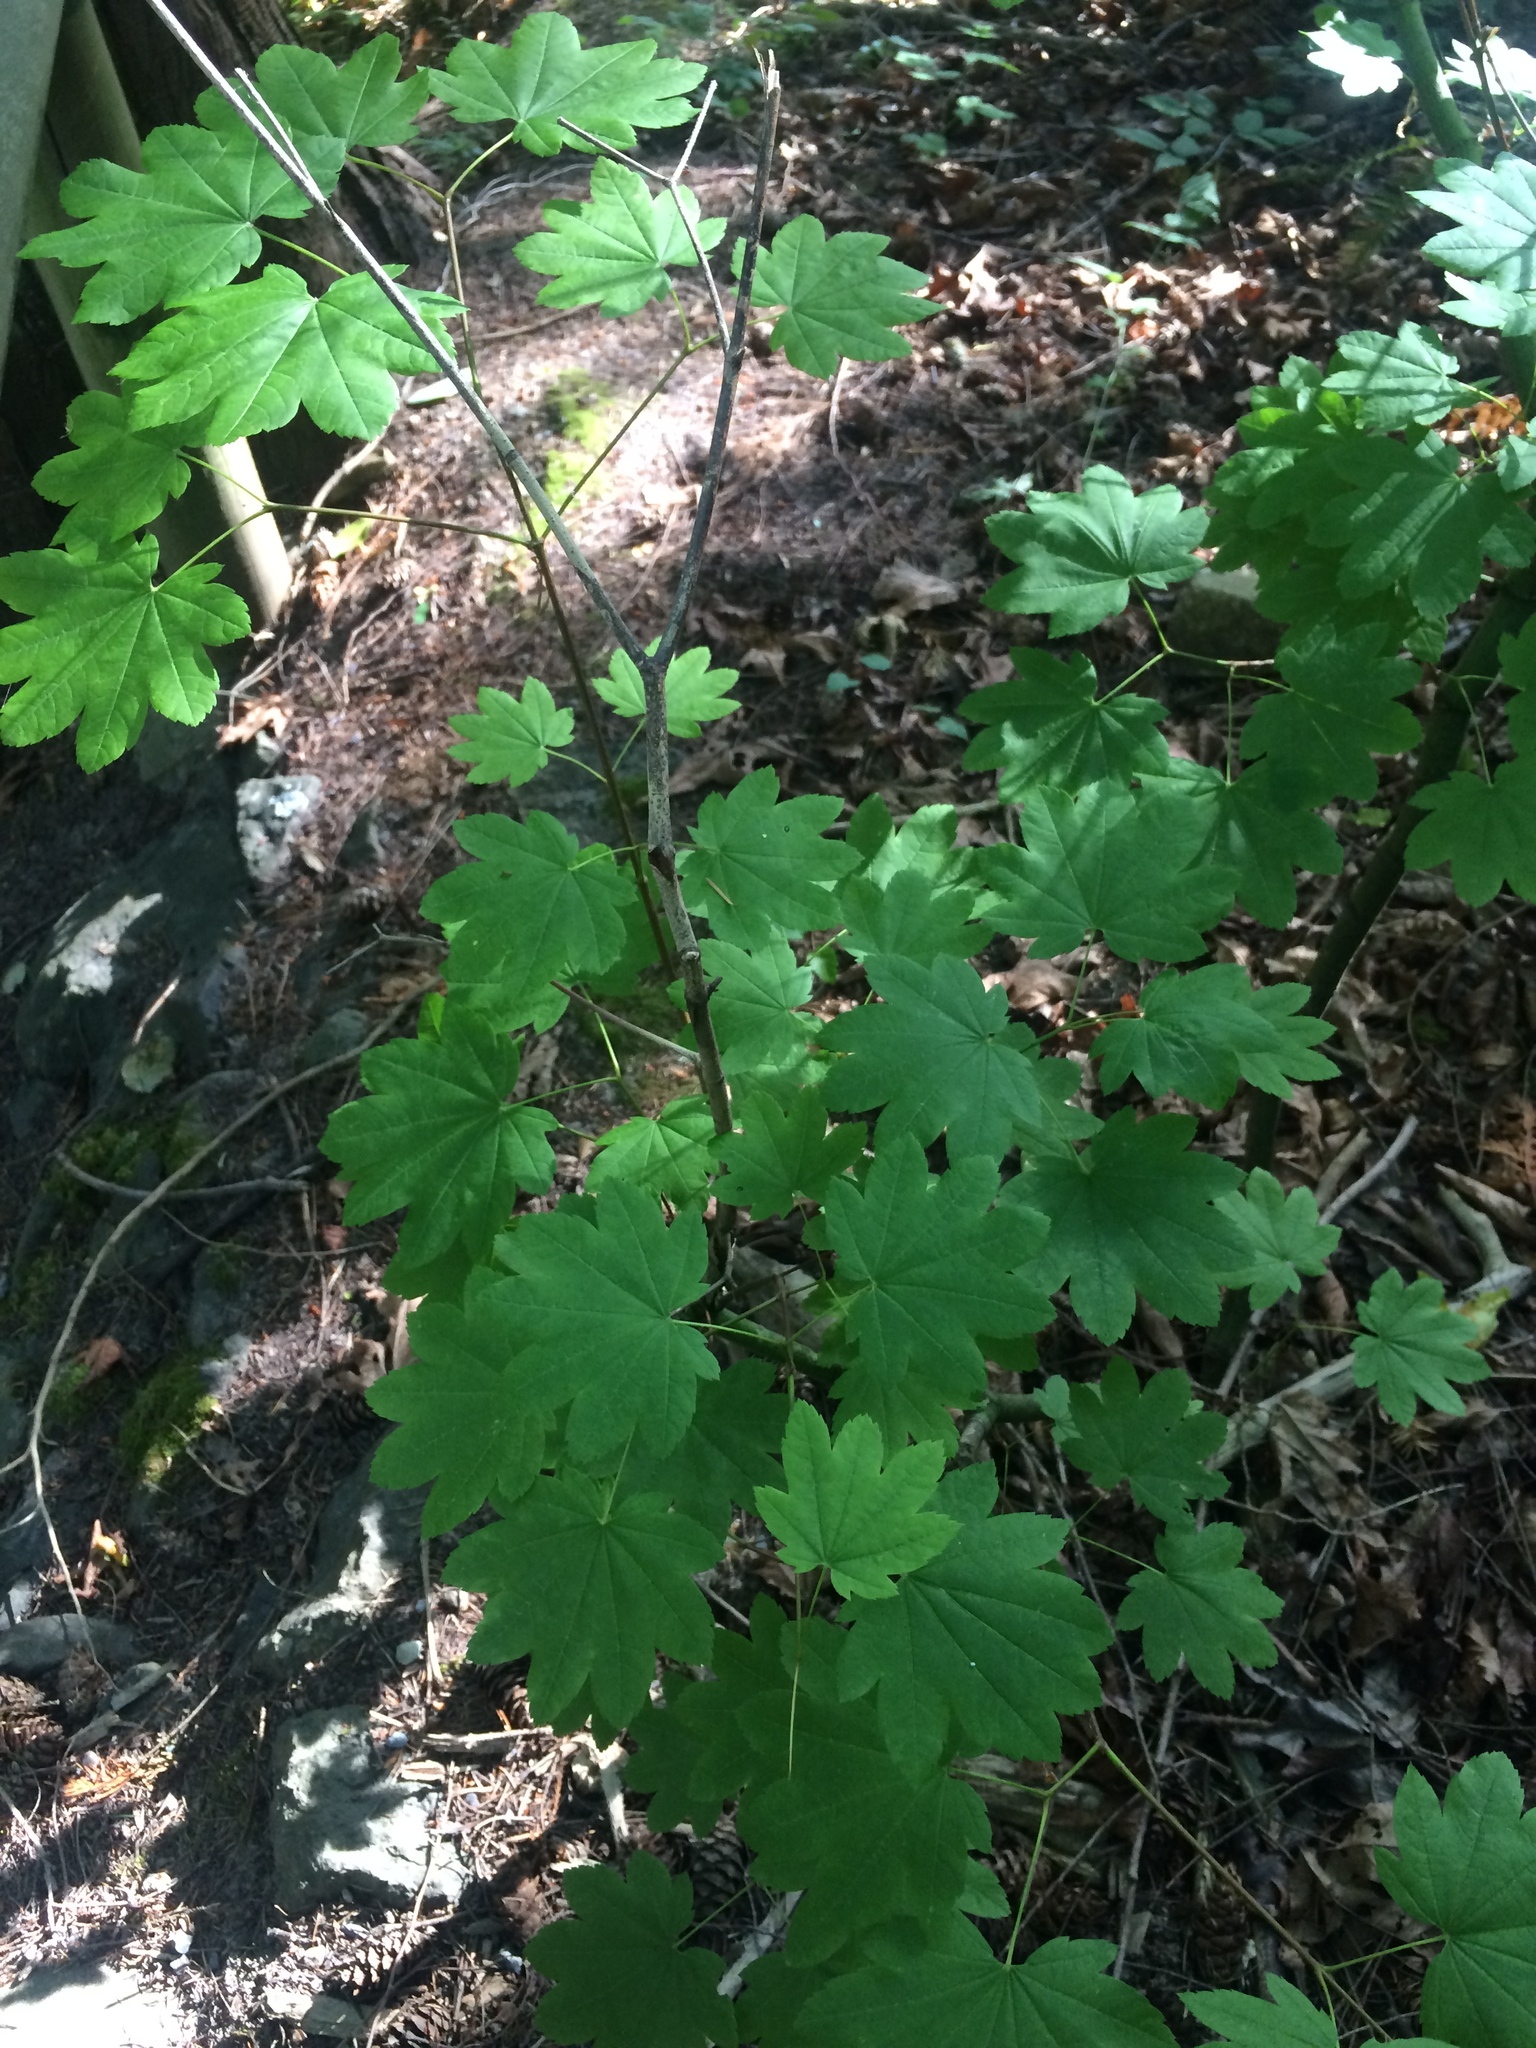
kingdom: Plantae
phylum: Tracheophyta
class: Magnoliopsida
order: Sapindales
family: Sapindaceae
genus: Acer
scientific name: Acer circinatum
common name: Vine maple
